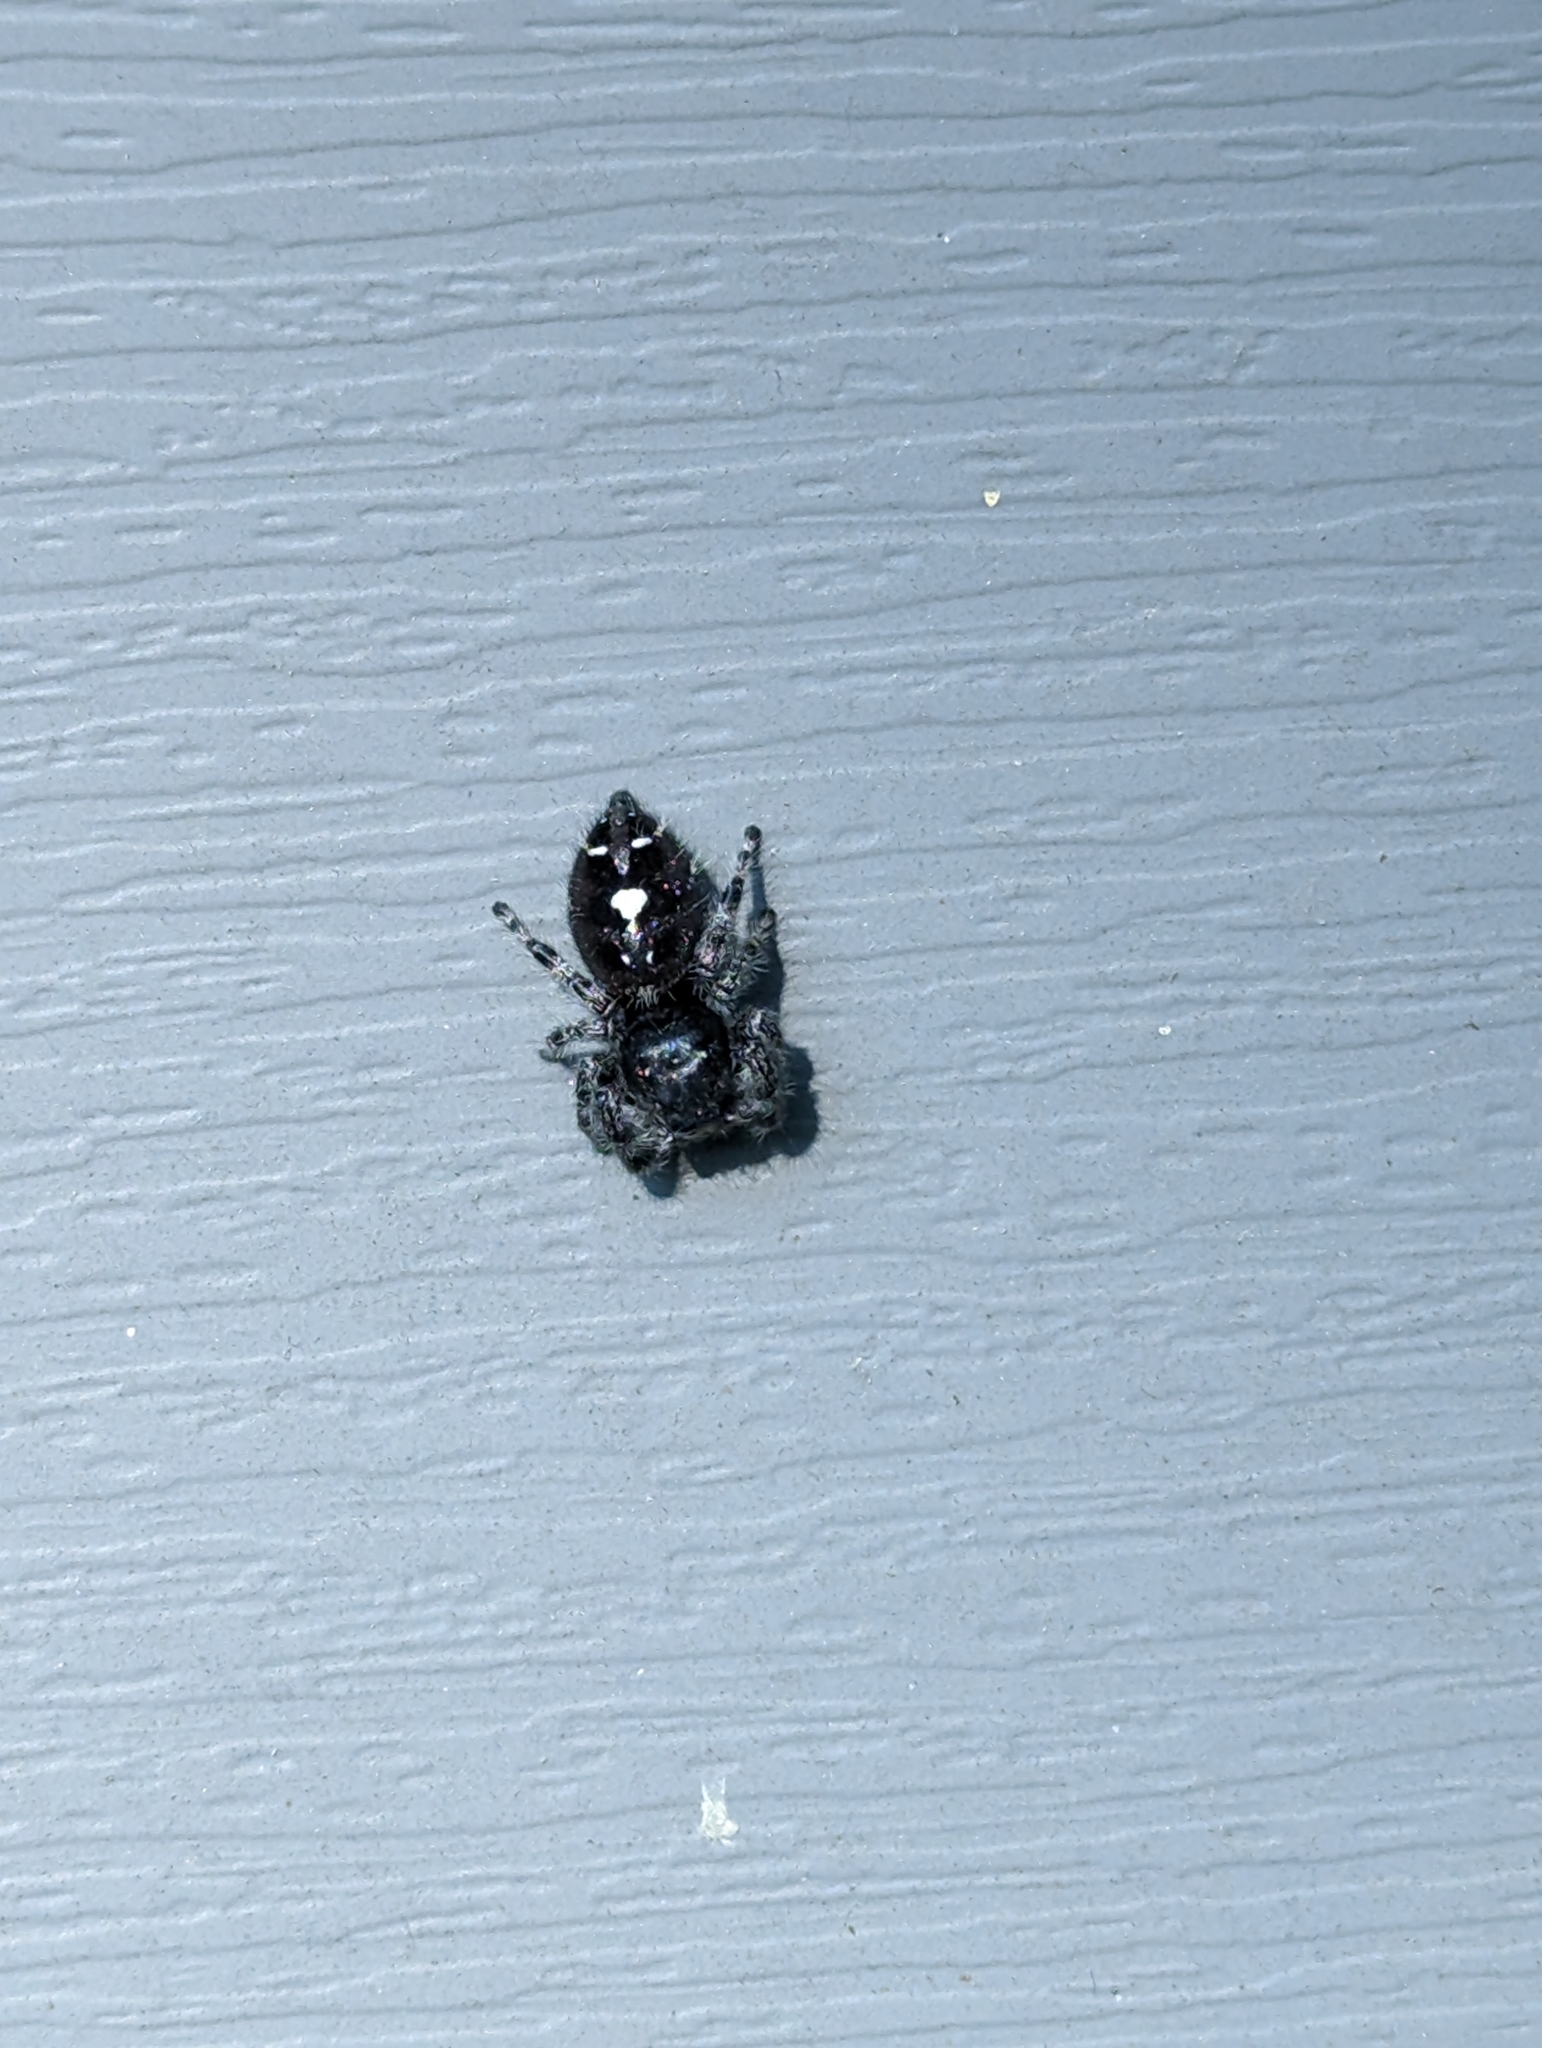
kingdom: Animalia
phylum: Arthropoda
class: Arachnida
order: Araneae
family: Salticidae
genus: Phidippus
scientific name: Phidippus audax
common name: Bold jumper
